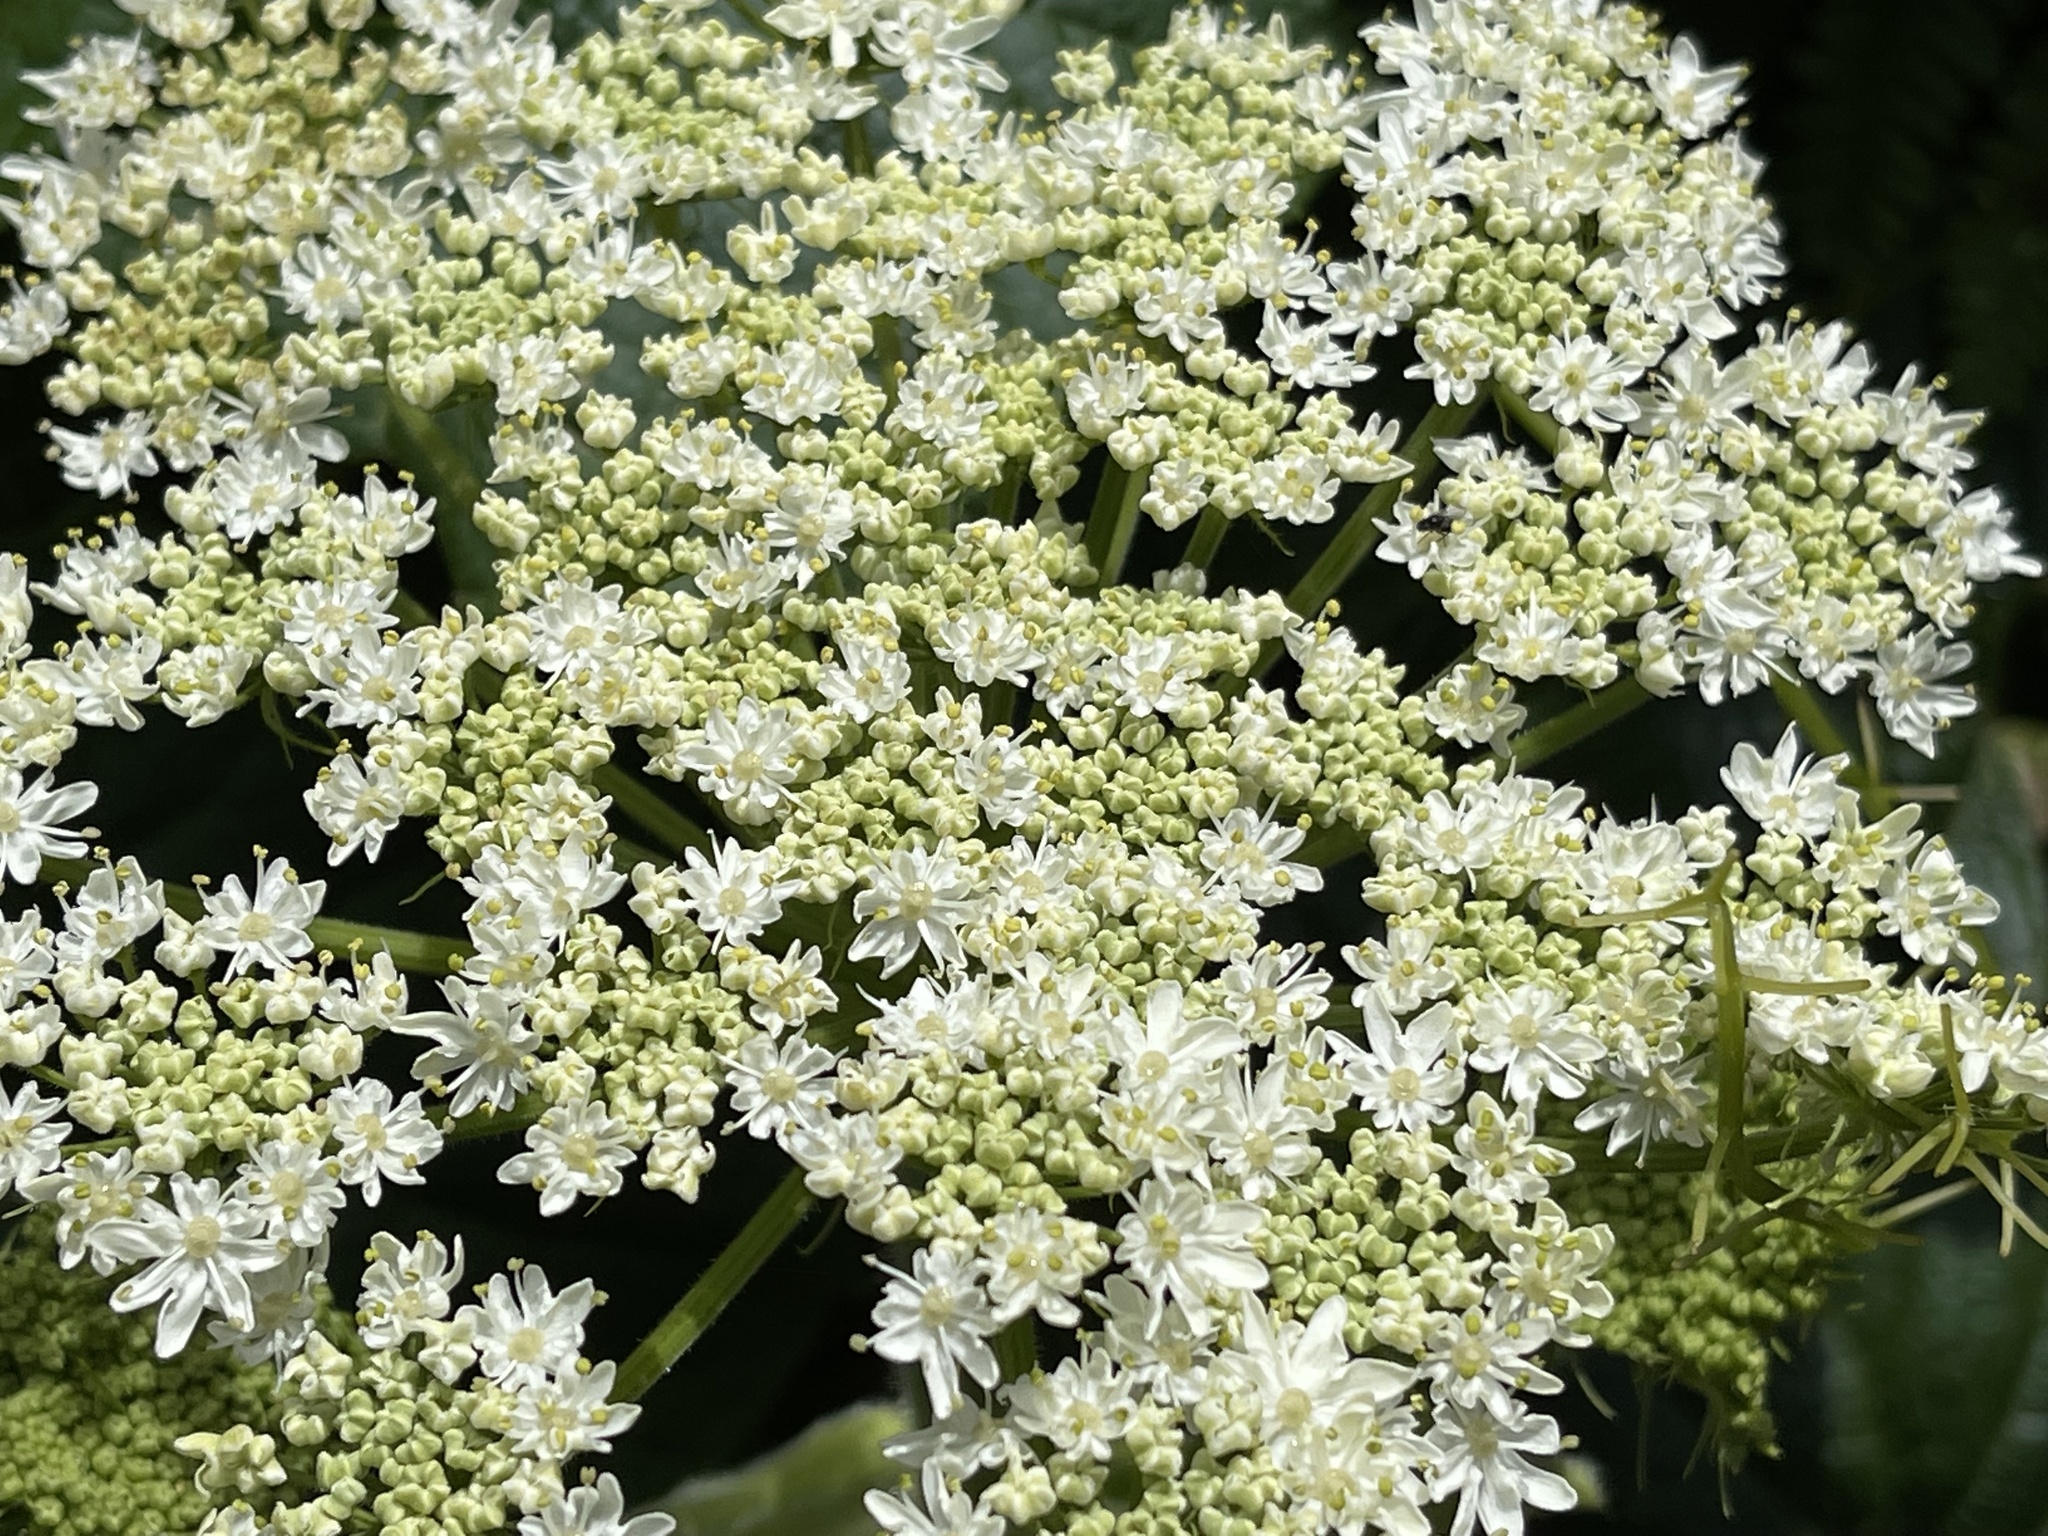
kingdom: Plantae
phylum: Tracheophyta
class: Magnoliopsida
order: Apiales
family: Apiaceae
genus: Heracleum
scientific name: Heracleum maximum
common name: American cow parsnip
